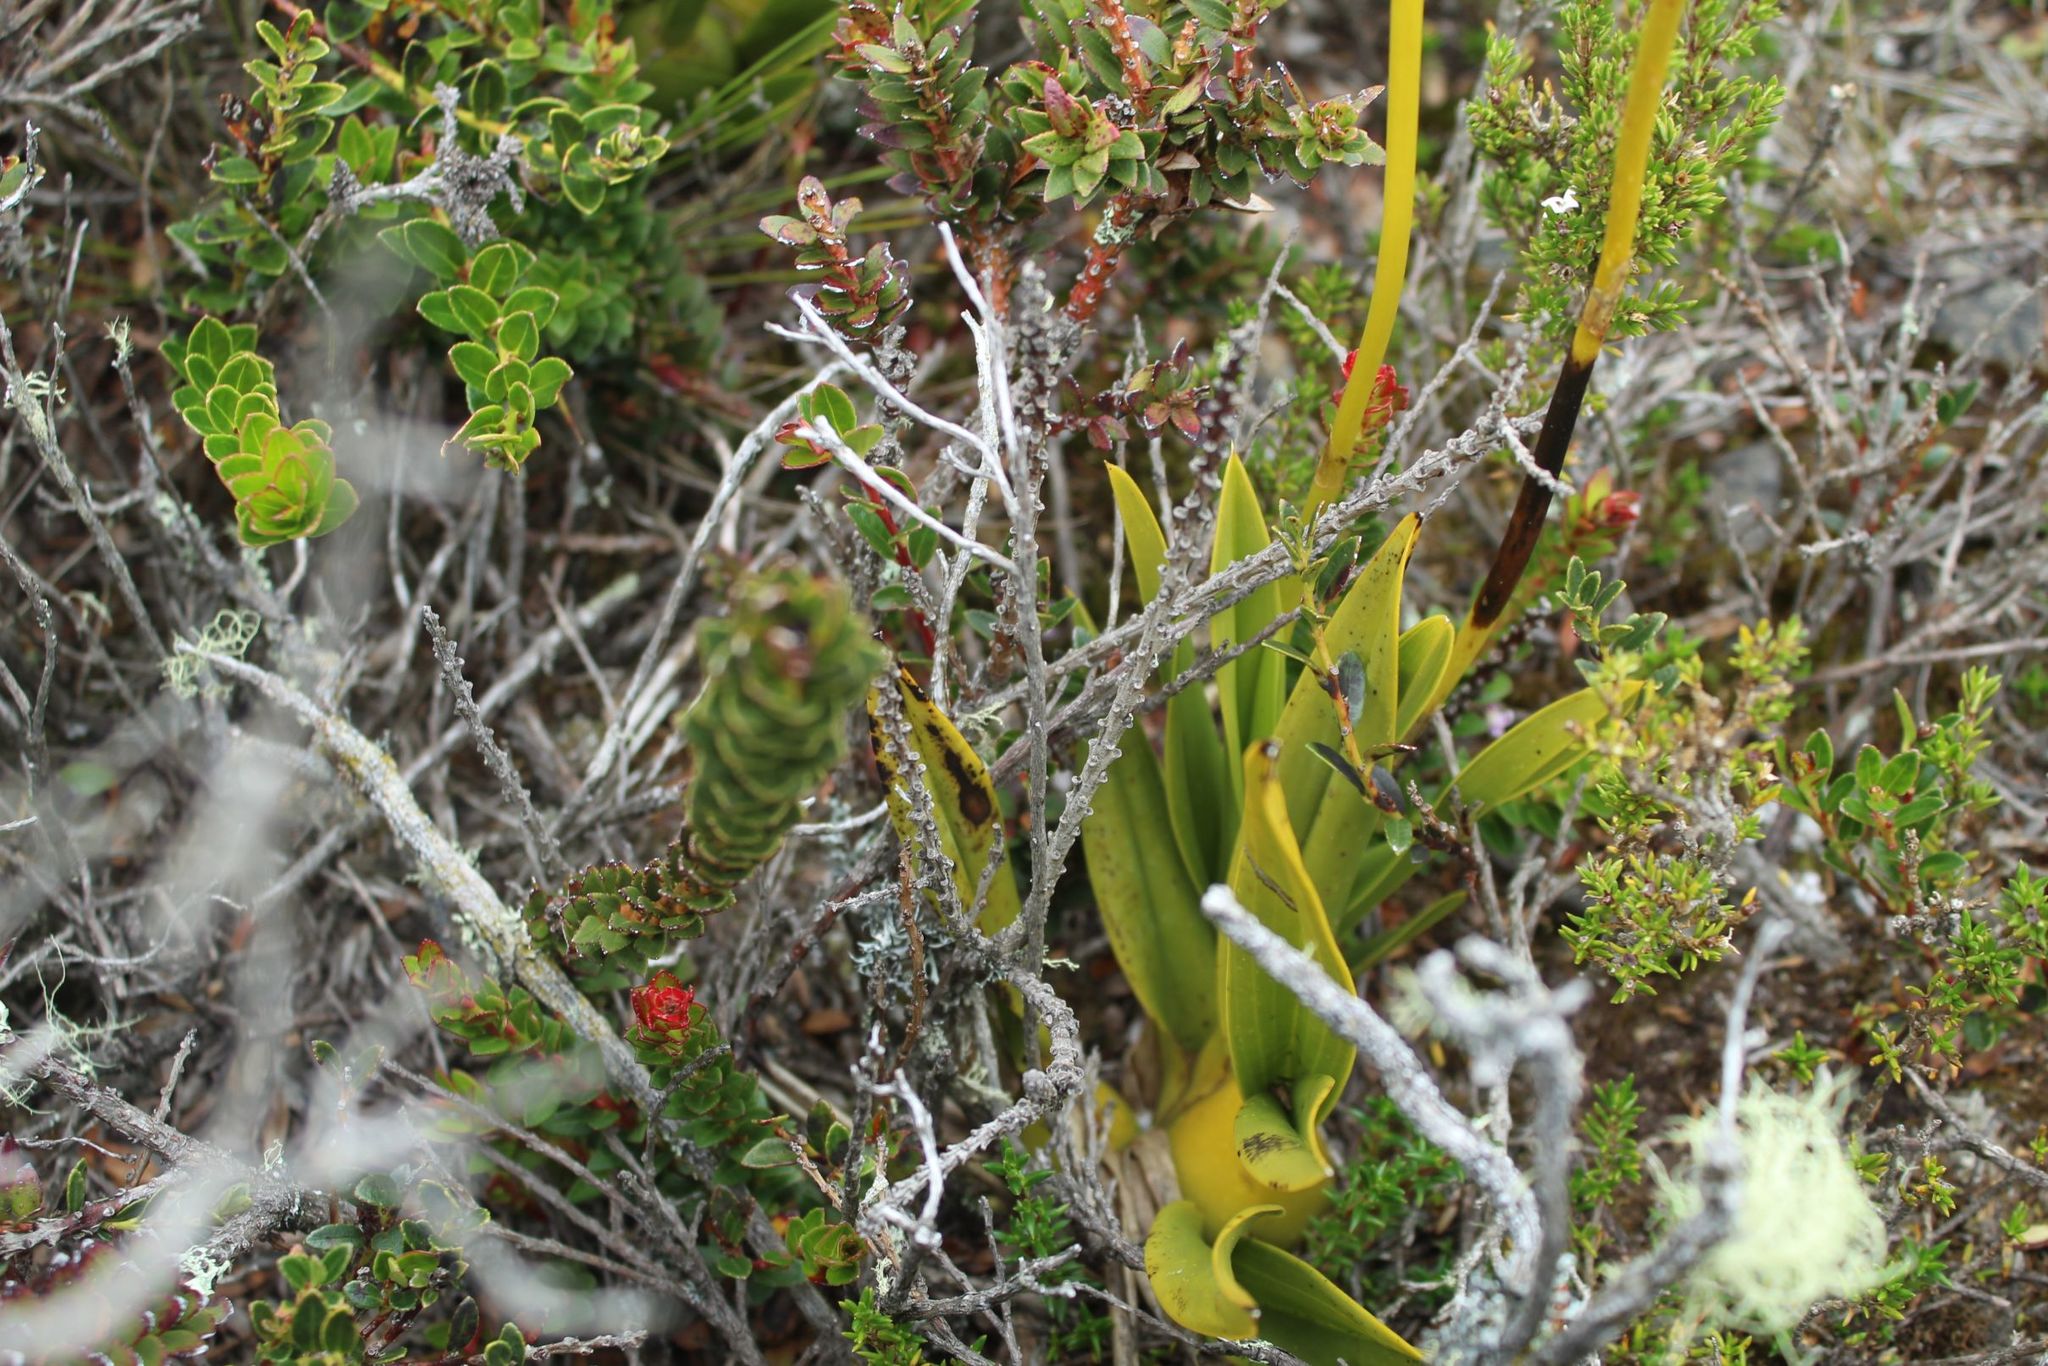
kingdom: Plantae
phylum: Tracheophyta
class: Liliopsida
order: Asparagales
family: Orchidaceae
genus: Cyrtochilum
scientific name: Cyrtochilum revolutum
